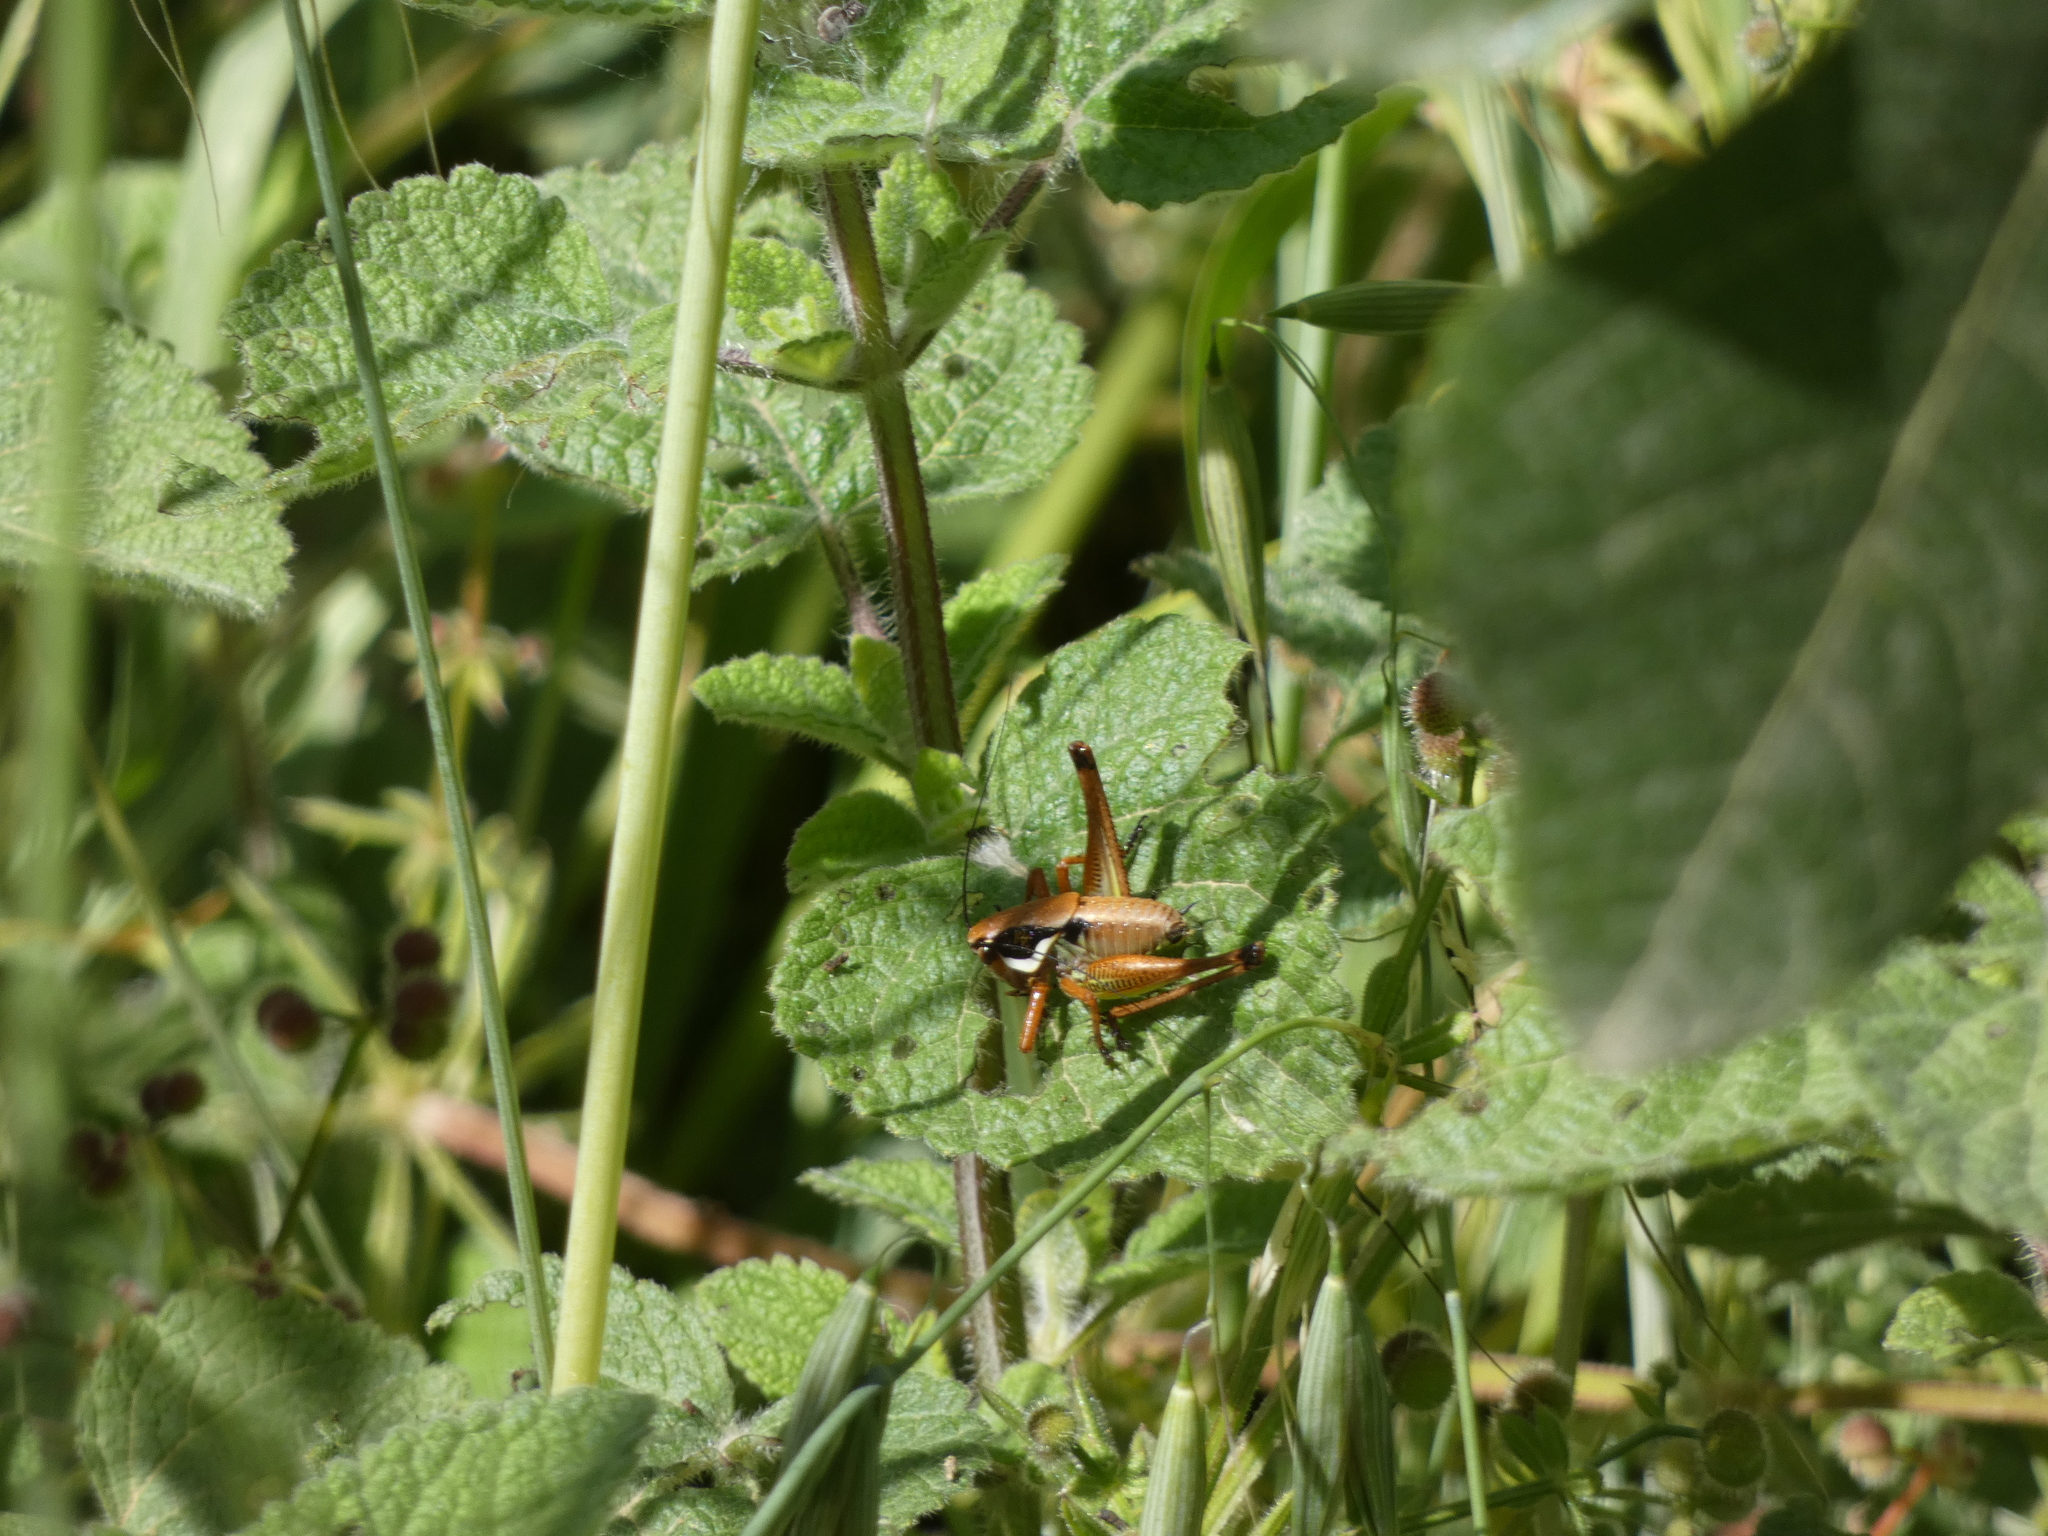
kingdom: Animalia
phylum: Arthropoda
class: Insecta
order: Orthoptera
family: Tettigoniidae
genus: Eupholidoptera
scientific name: Eupholidoptera megastyla
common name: Greek marbled bush-cricket
